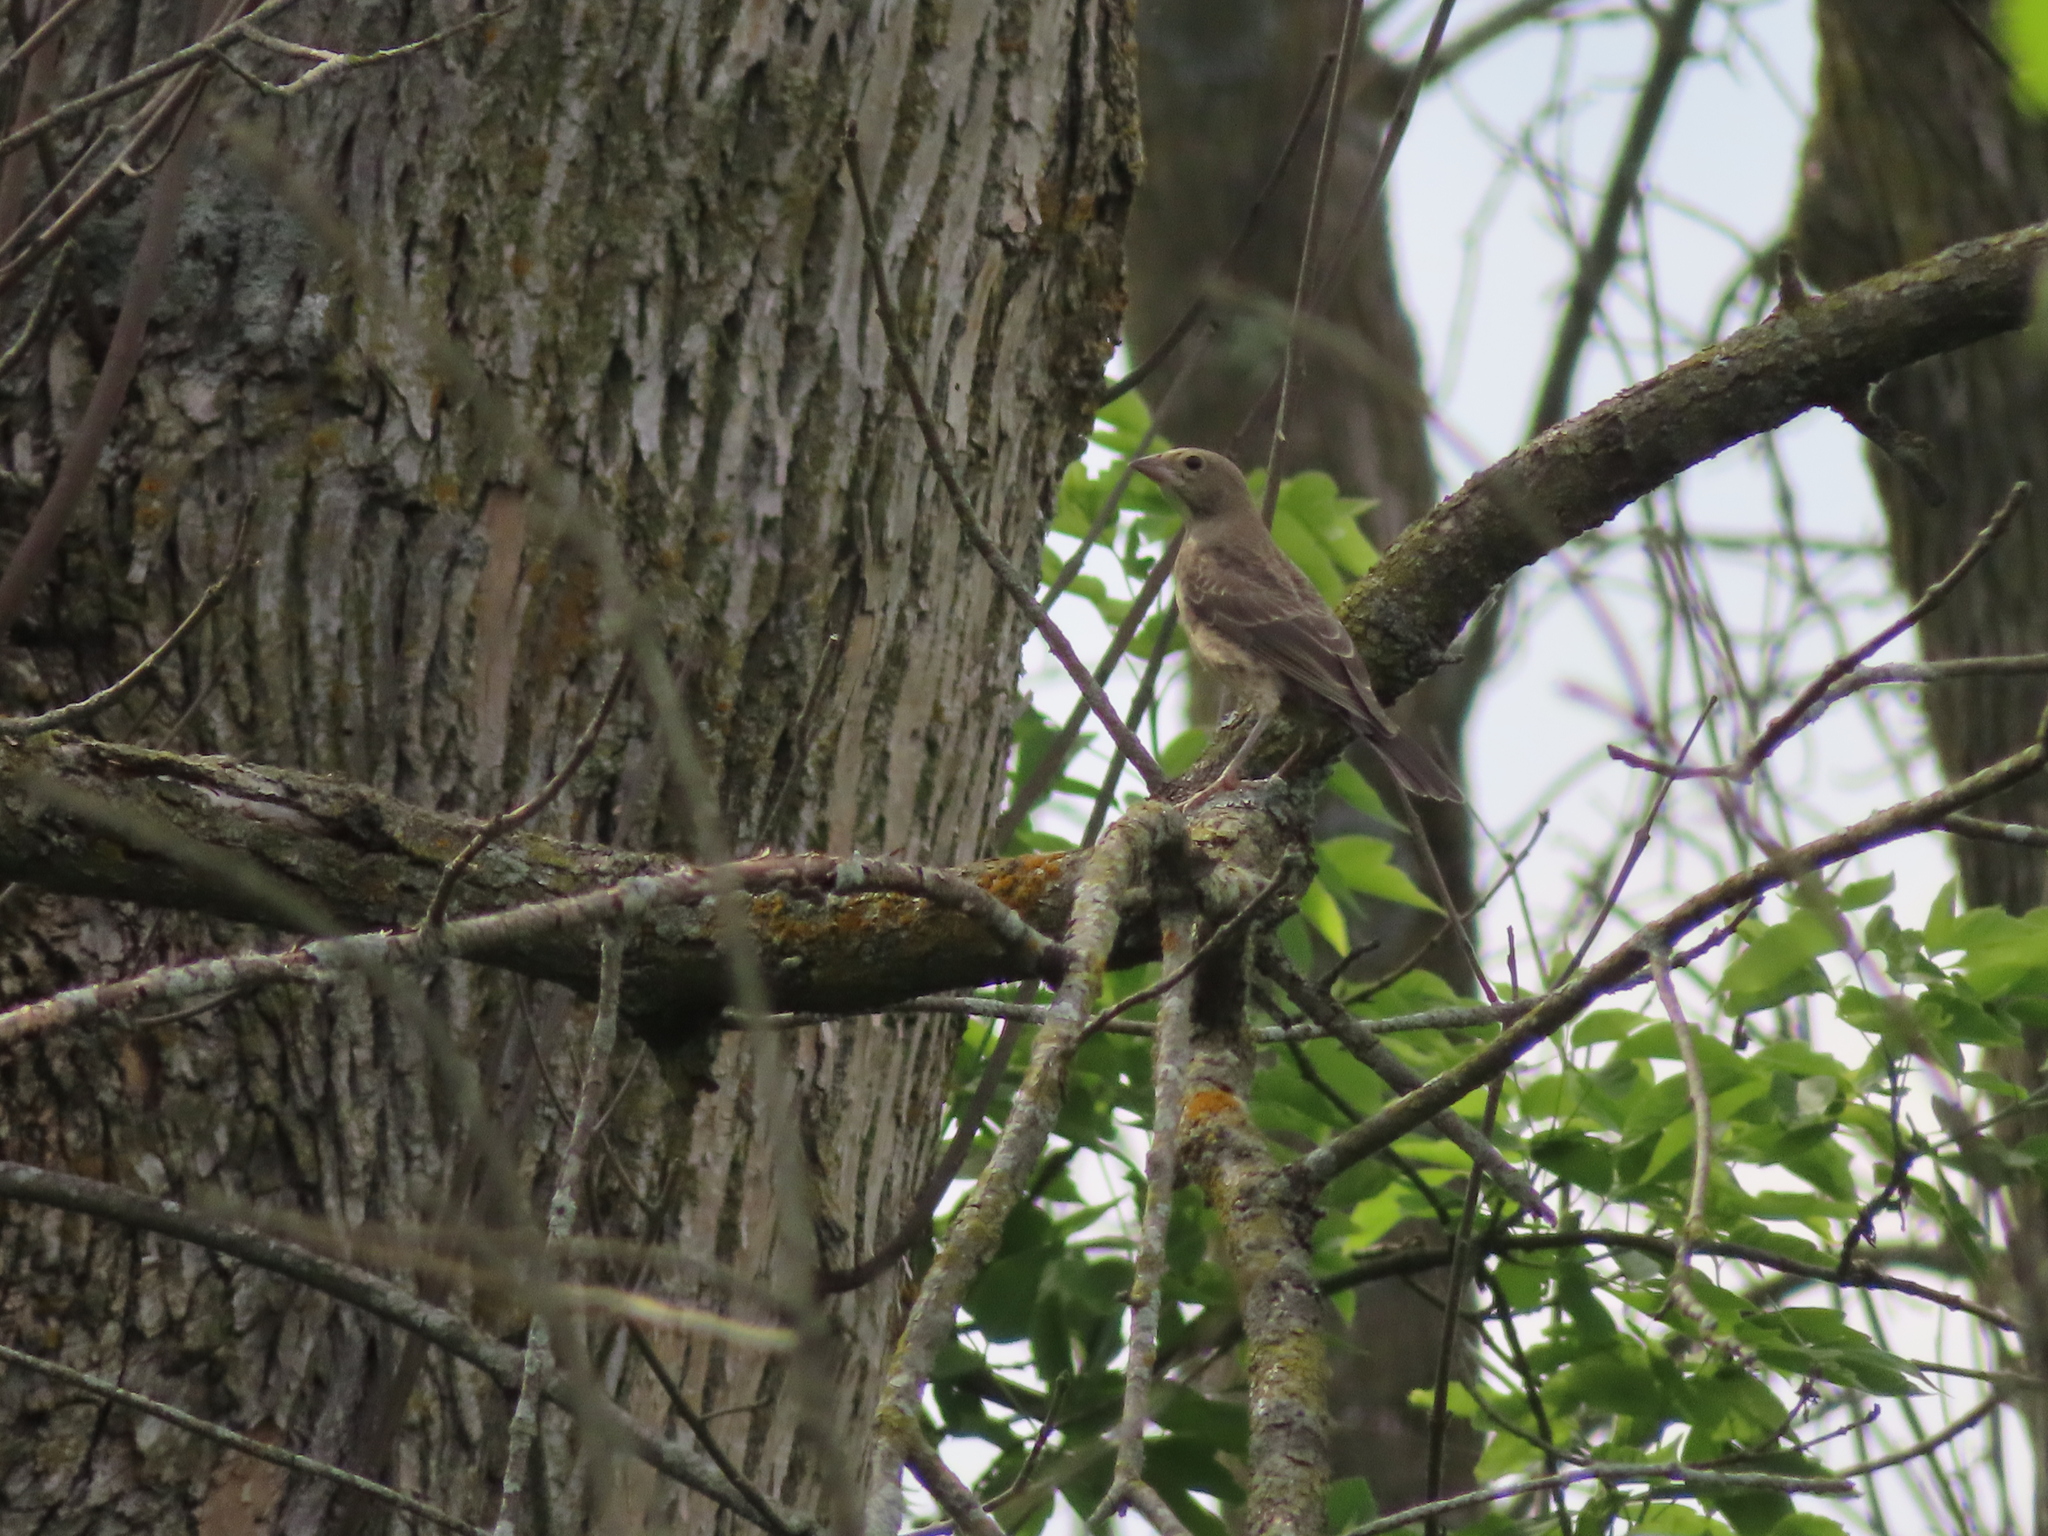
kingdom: Animalia
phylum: Chordata
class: Aves
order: Passeriformes
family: Icteridae
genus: Molothrus
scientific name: Molothrus ater
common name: Brown-headed cowbird
